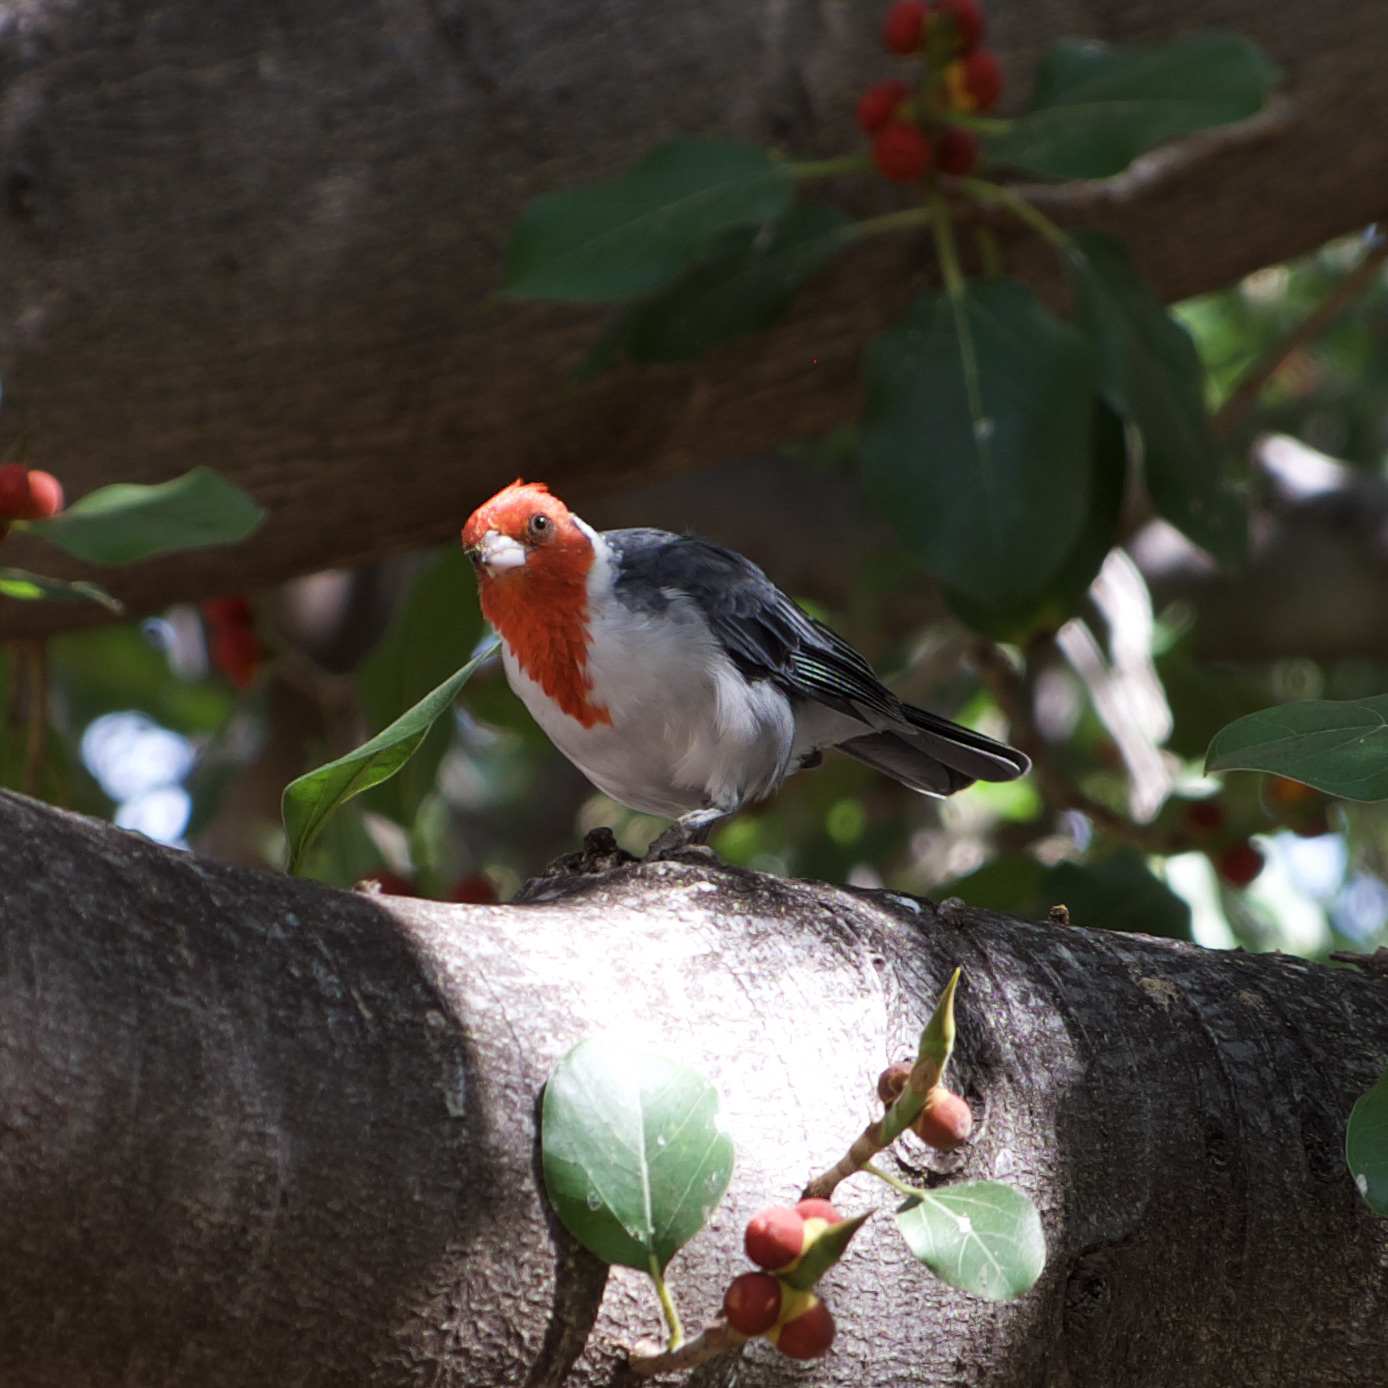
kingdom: Animalia
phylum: Chordata
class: Aves
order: Passeriformes
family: Thraupidae
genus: Paroaria
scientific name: Paroaria coronata
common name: Red-crested cardinal
